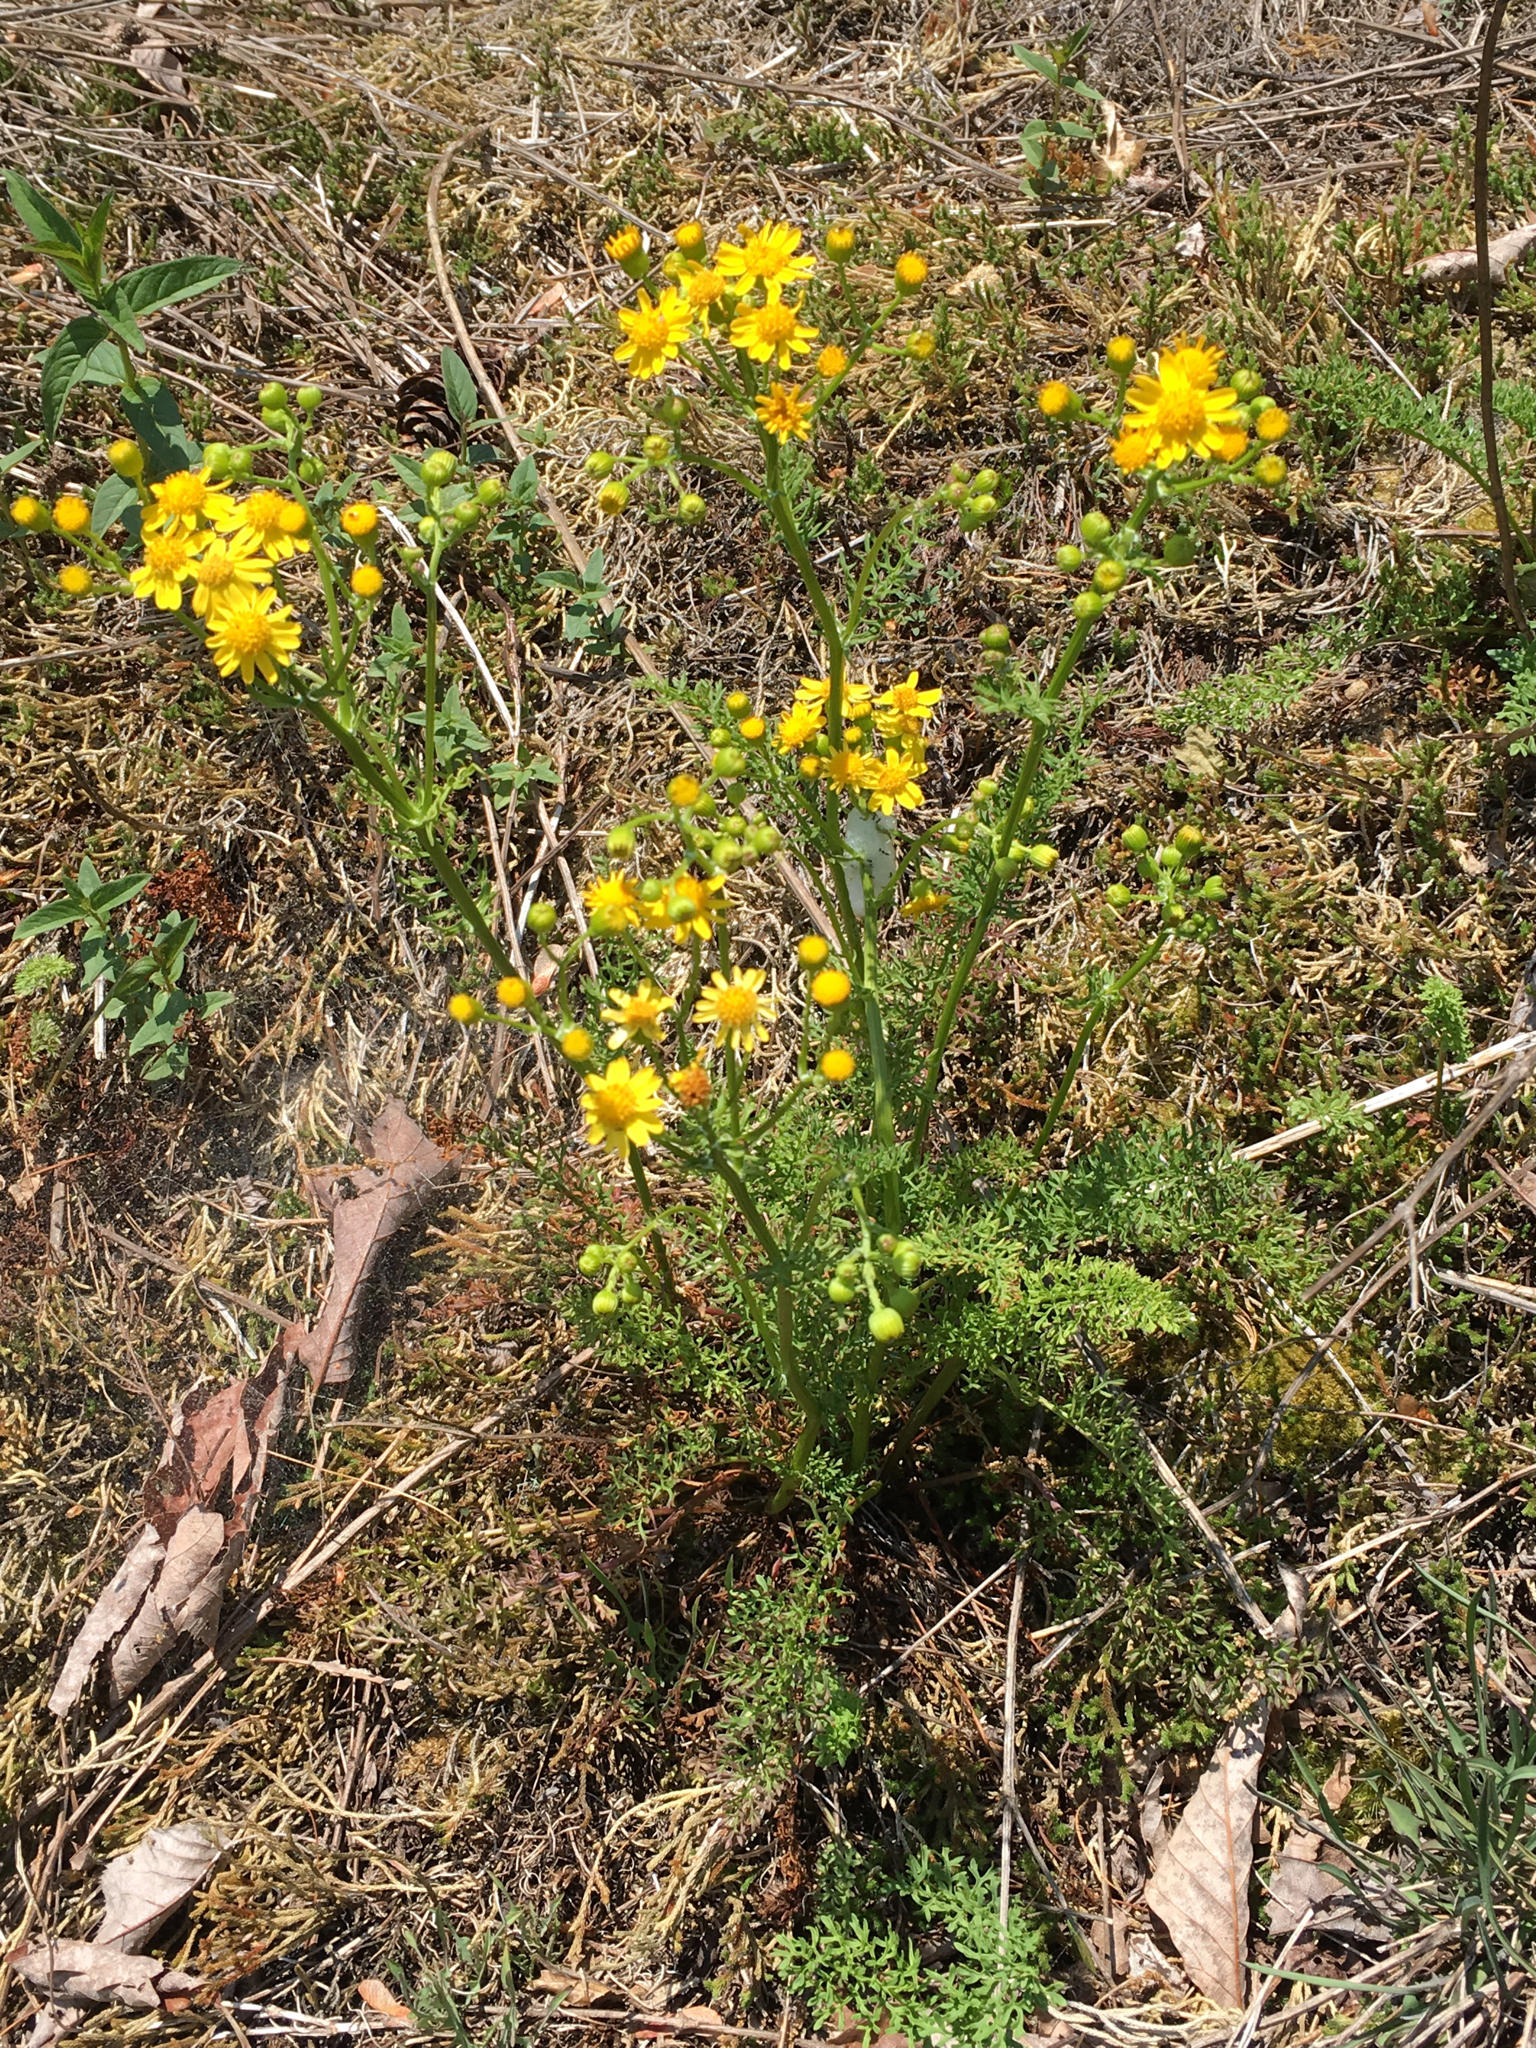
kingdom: Plantae
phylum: Tracheophyta
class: Magnoliopsida
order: Asterales
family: Asteraceae
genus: Packera
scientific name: Packera millefolia
